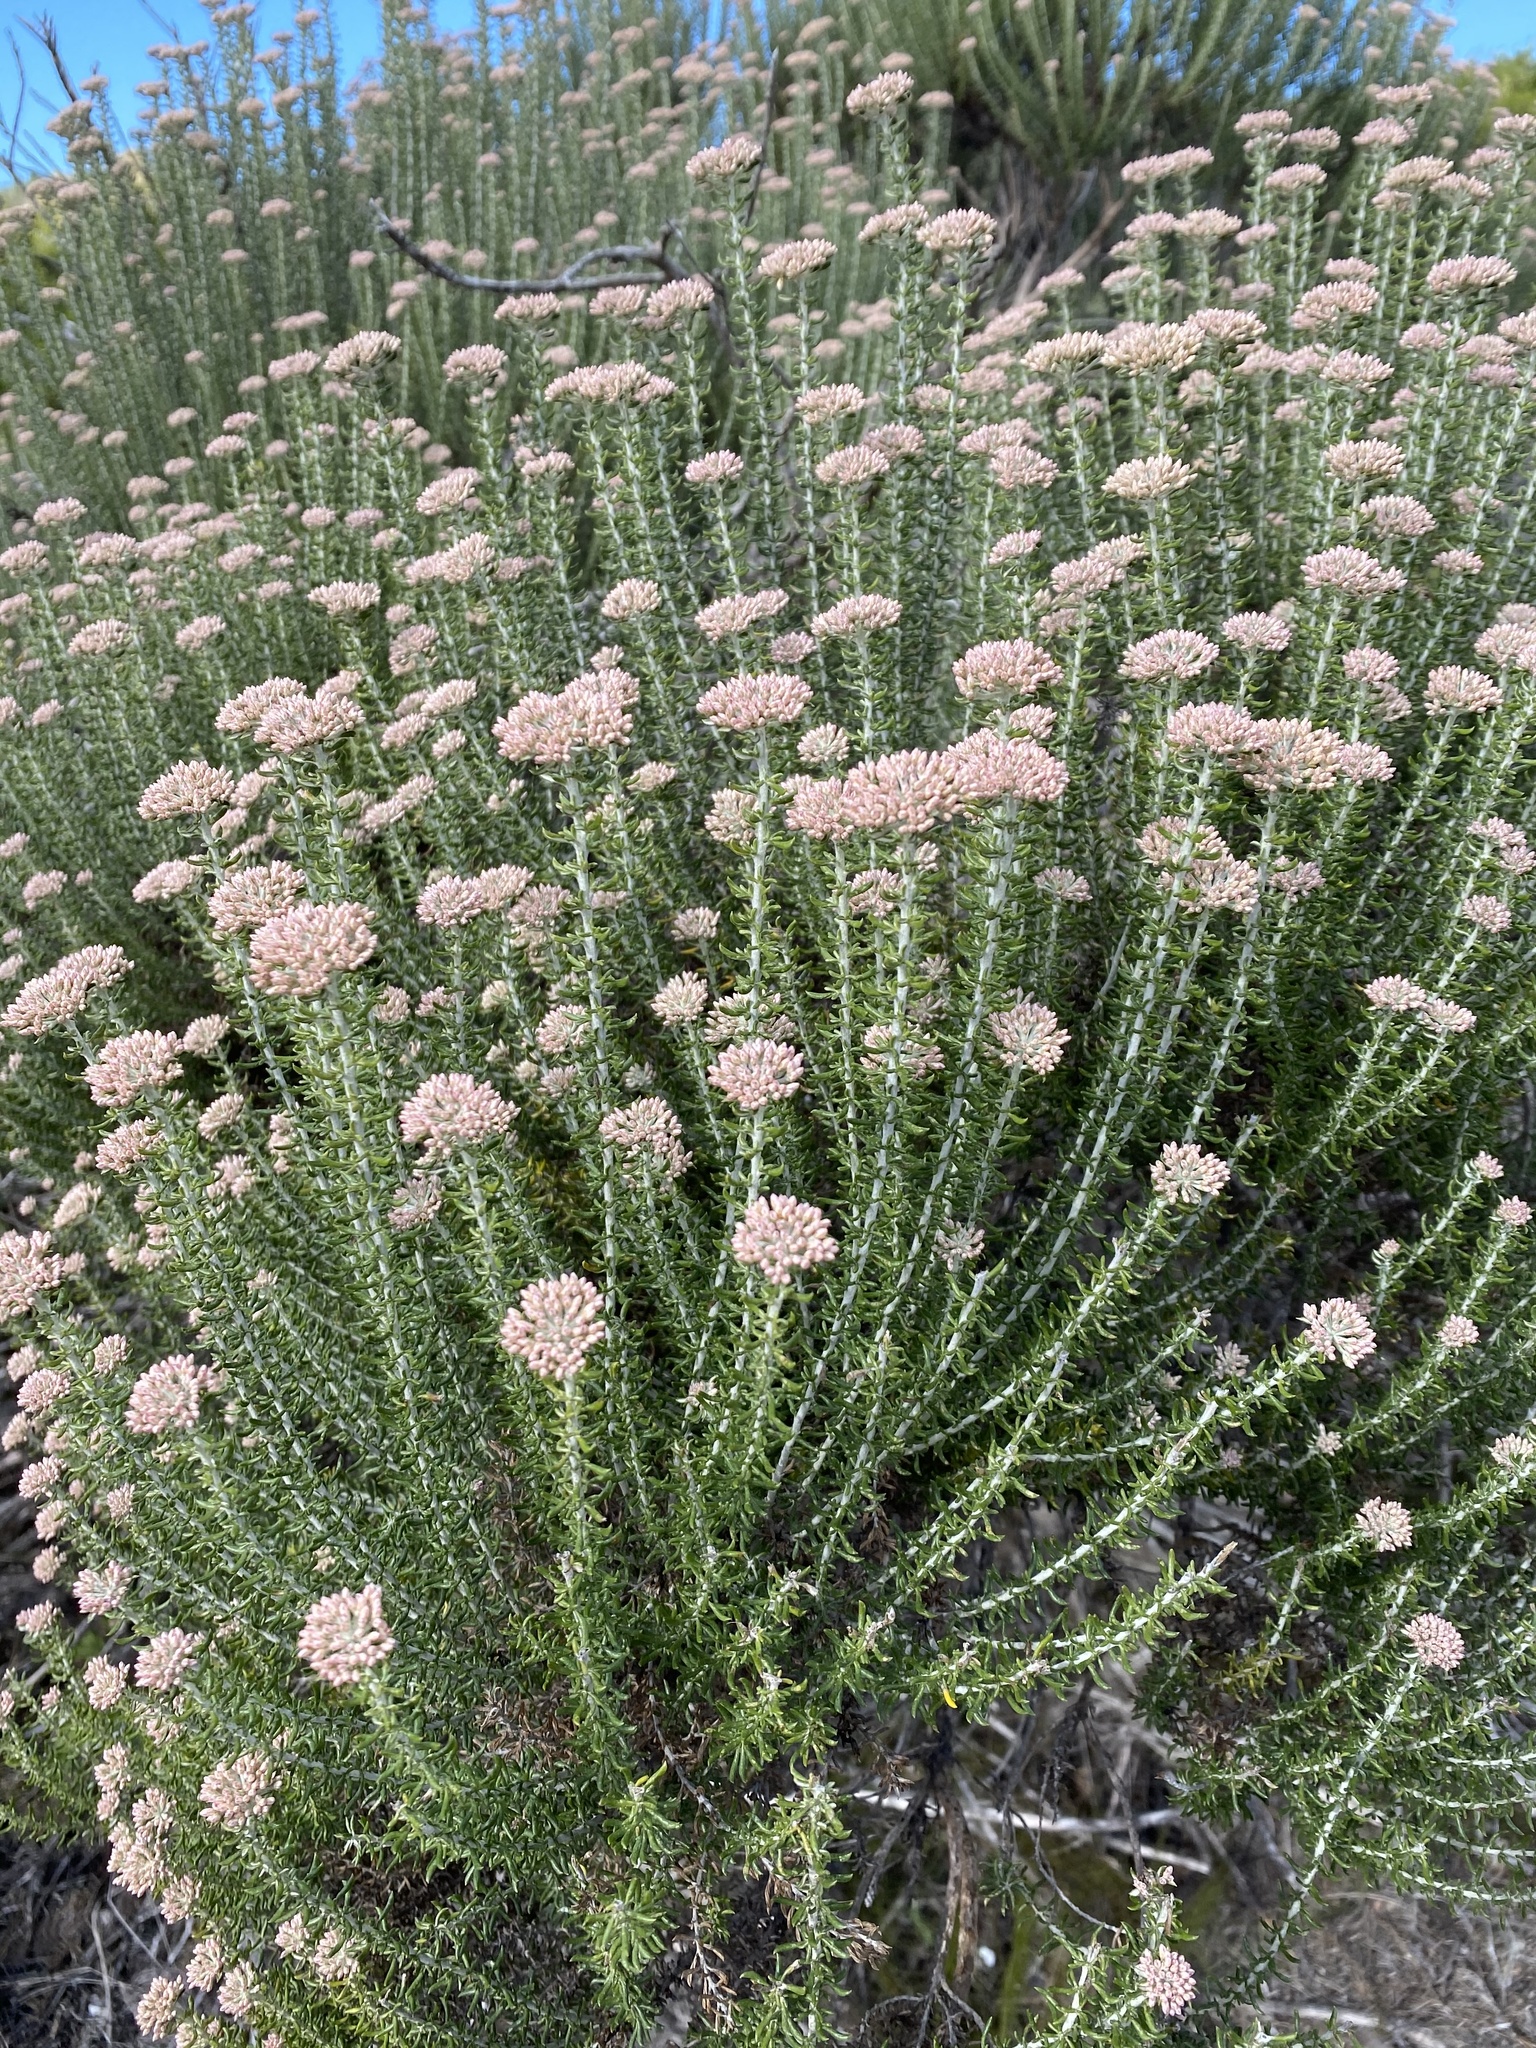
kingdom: Plantae
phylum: Tracheophyta
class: Magnoliopsida
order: Asterales
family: Asteraceae
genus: Metalasia
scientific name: Metalasia muricata
